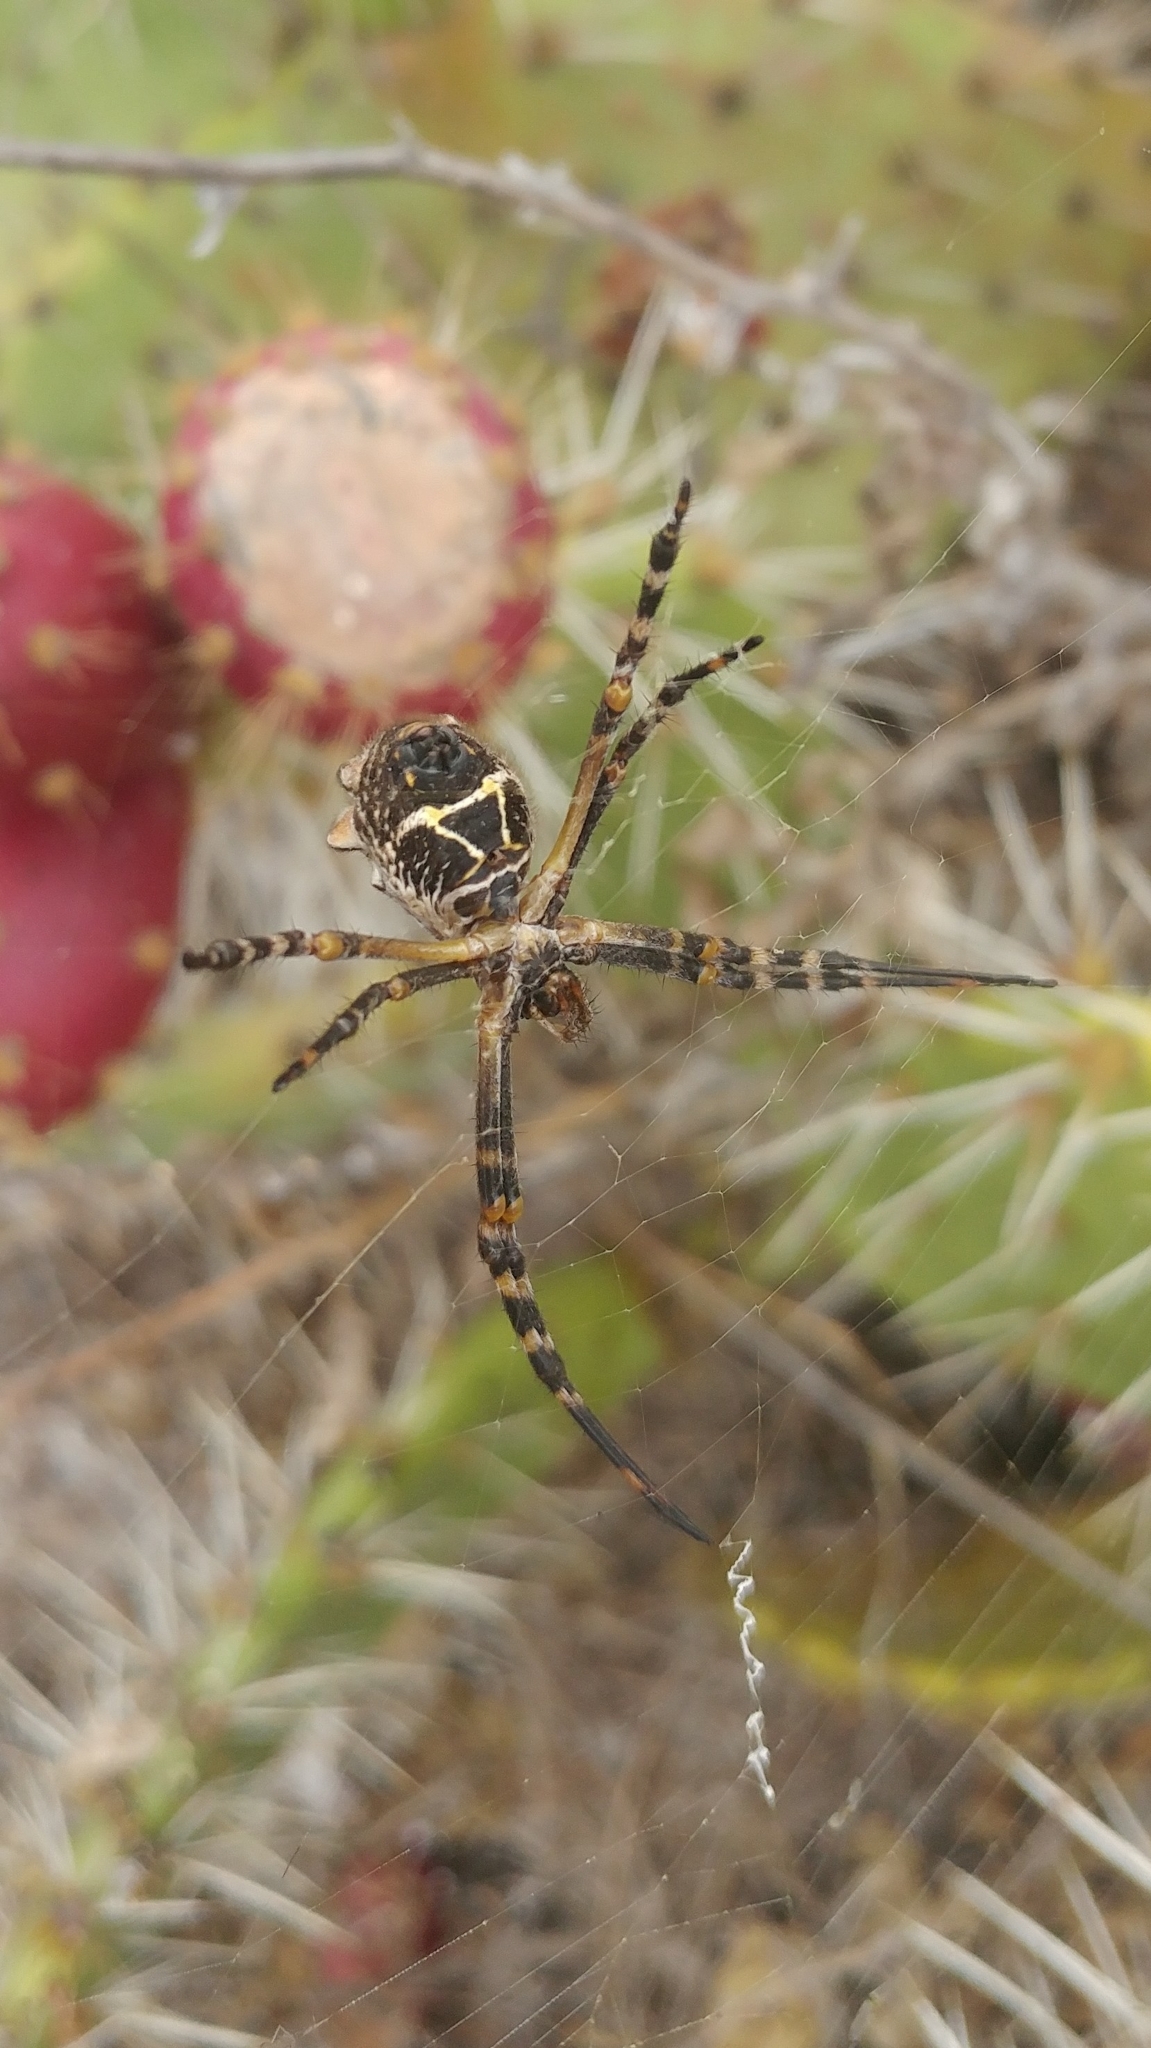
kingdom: Animalia
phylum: Arthropoda
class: Arachnida
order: Araneae
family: Araneidae
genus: Argiope
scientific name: Argiope argentata
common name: Orb weavers
